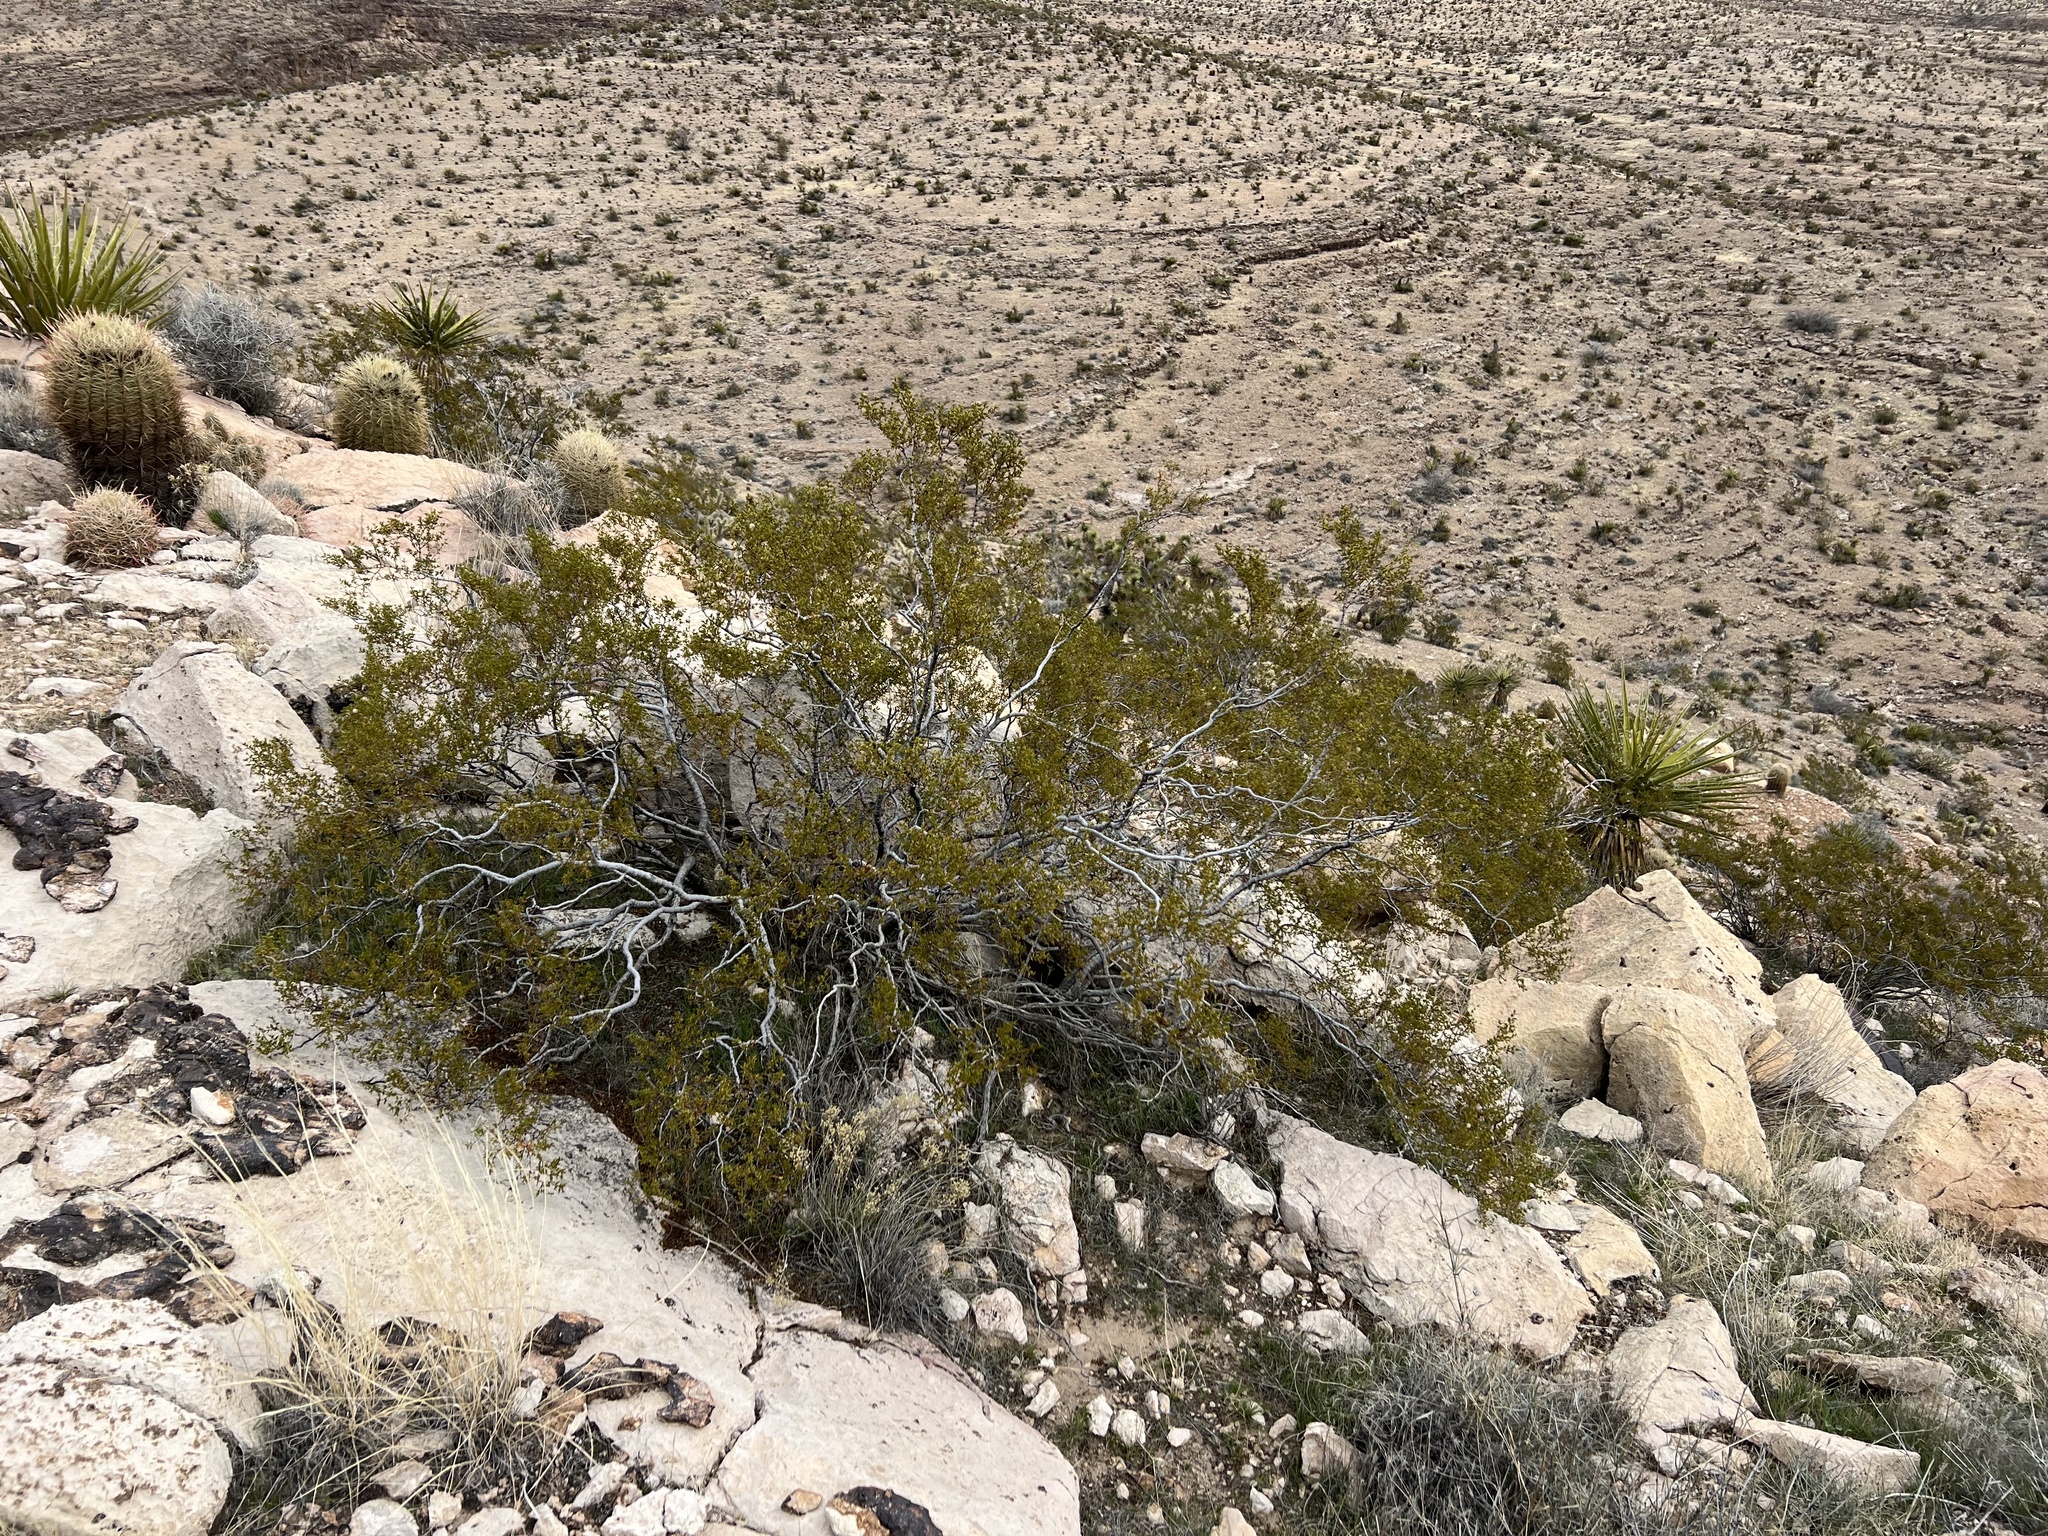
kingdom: Plantae
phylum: Tracheophyta
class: Magnoliopsida
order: Zygophyllales
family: Zygophyllaceae
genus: Larrea
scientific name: Larrea tridentata
